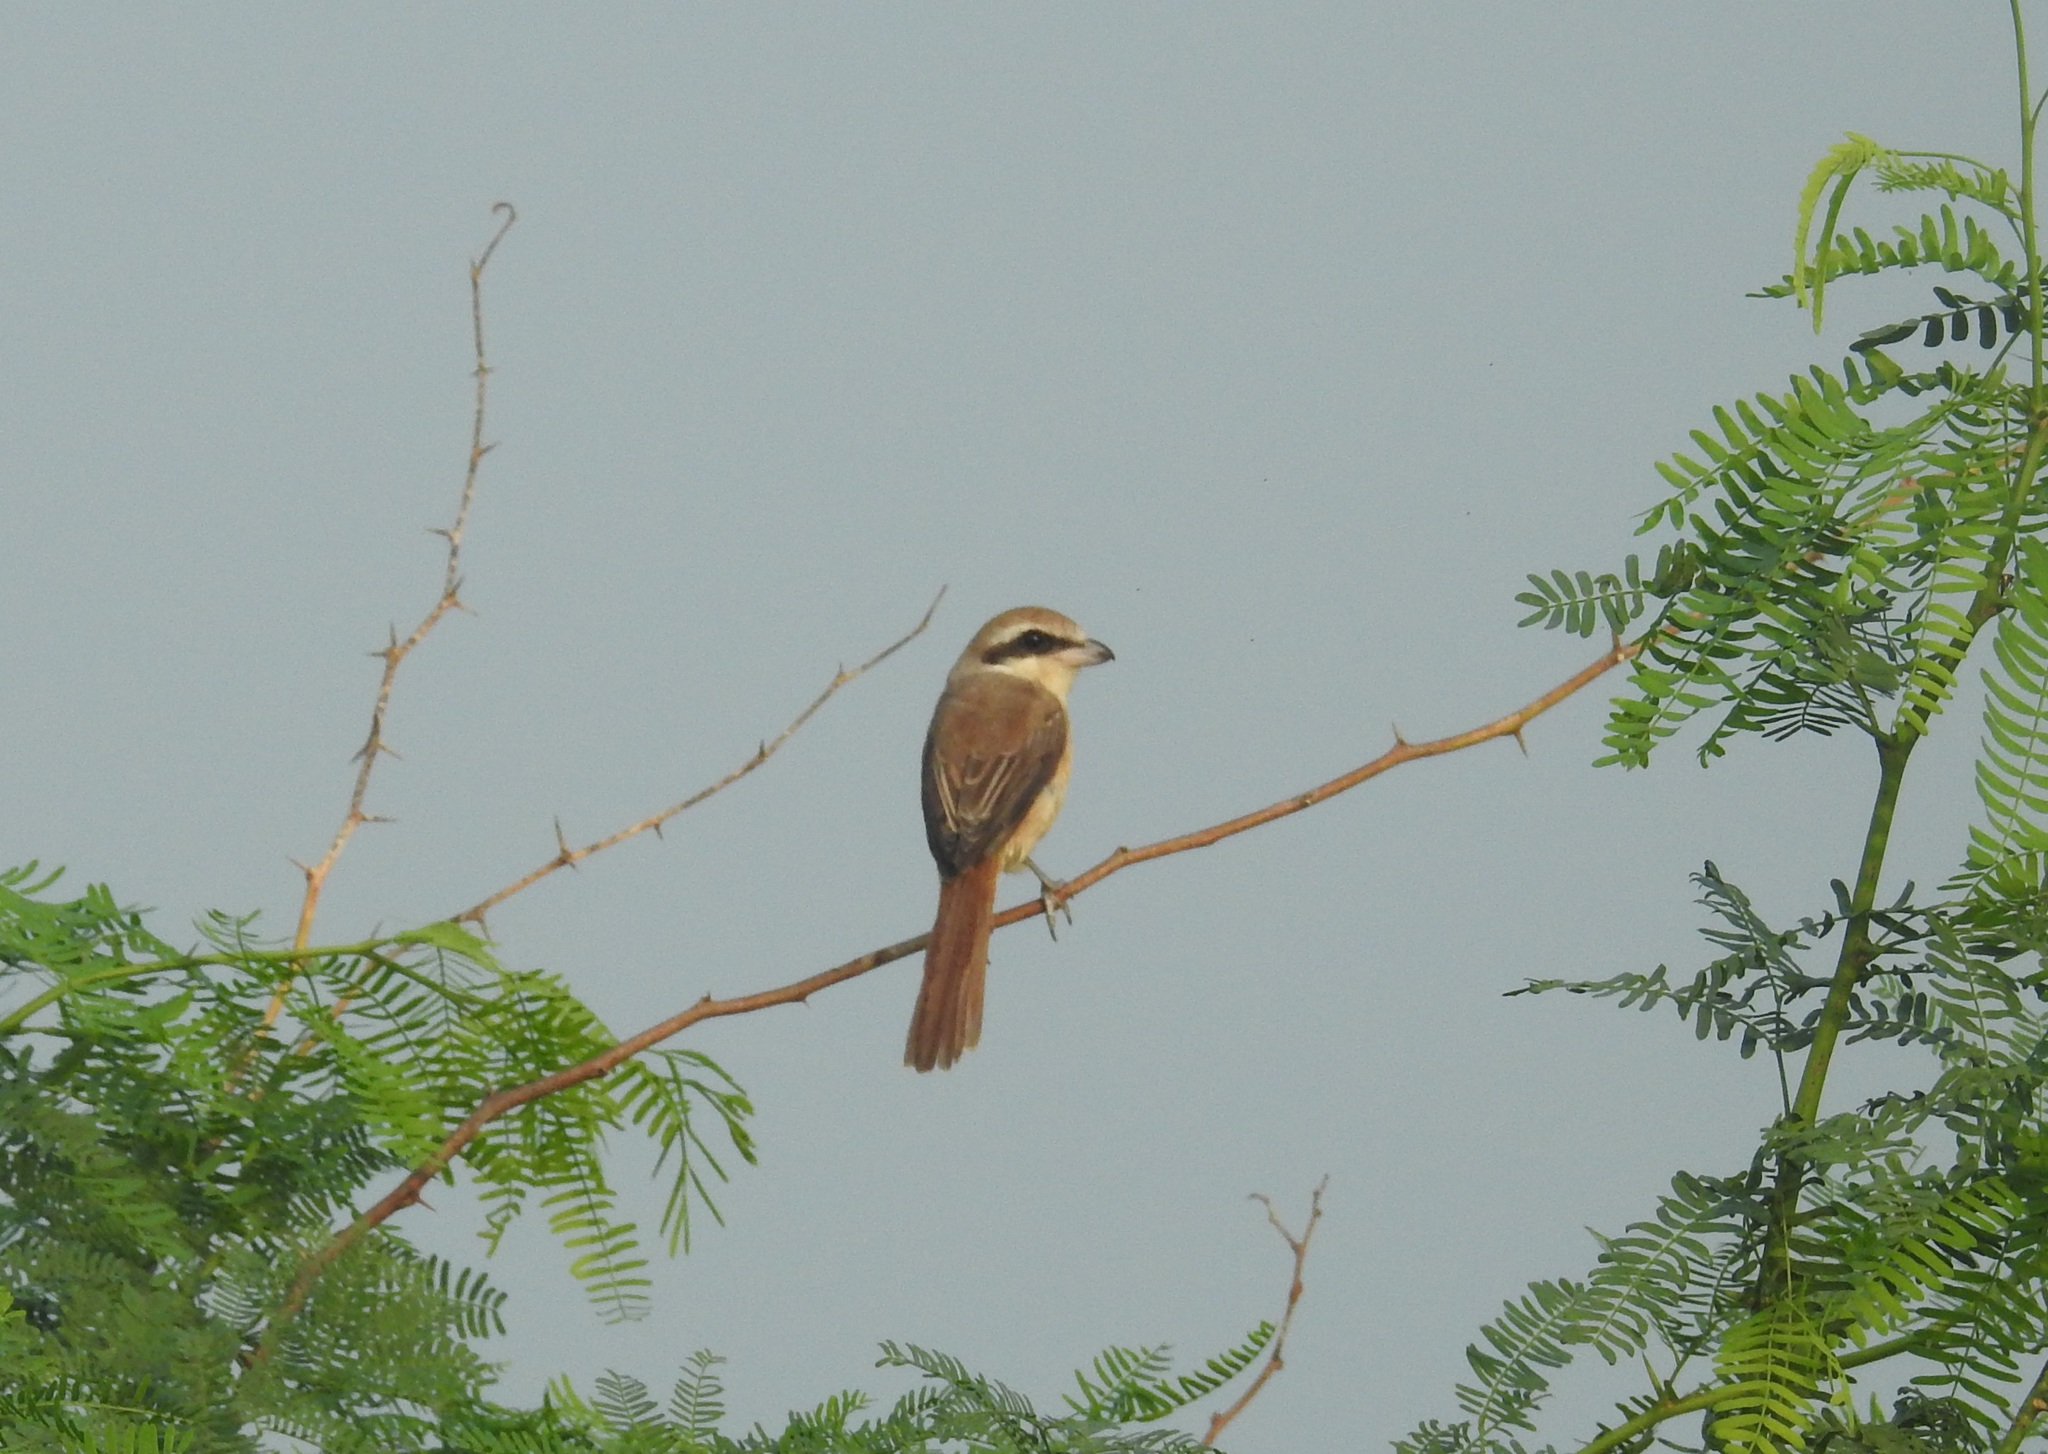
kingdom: Animalia
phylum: Chordata
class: Aves
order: Passeriformes
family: Laniidae
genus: Lanius
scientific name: Lanius cristatus
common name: Brown shrike
